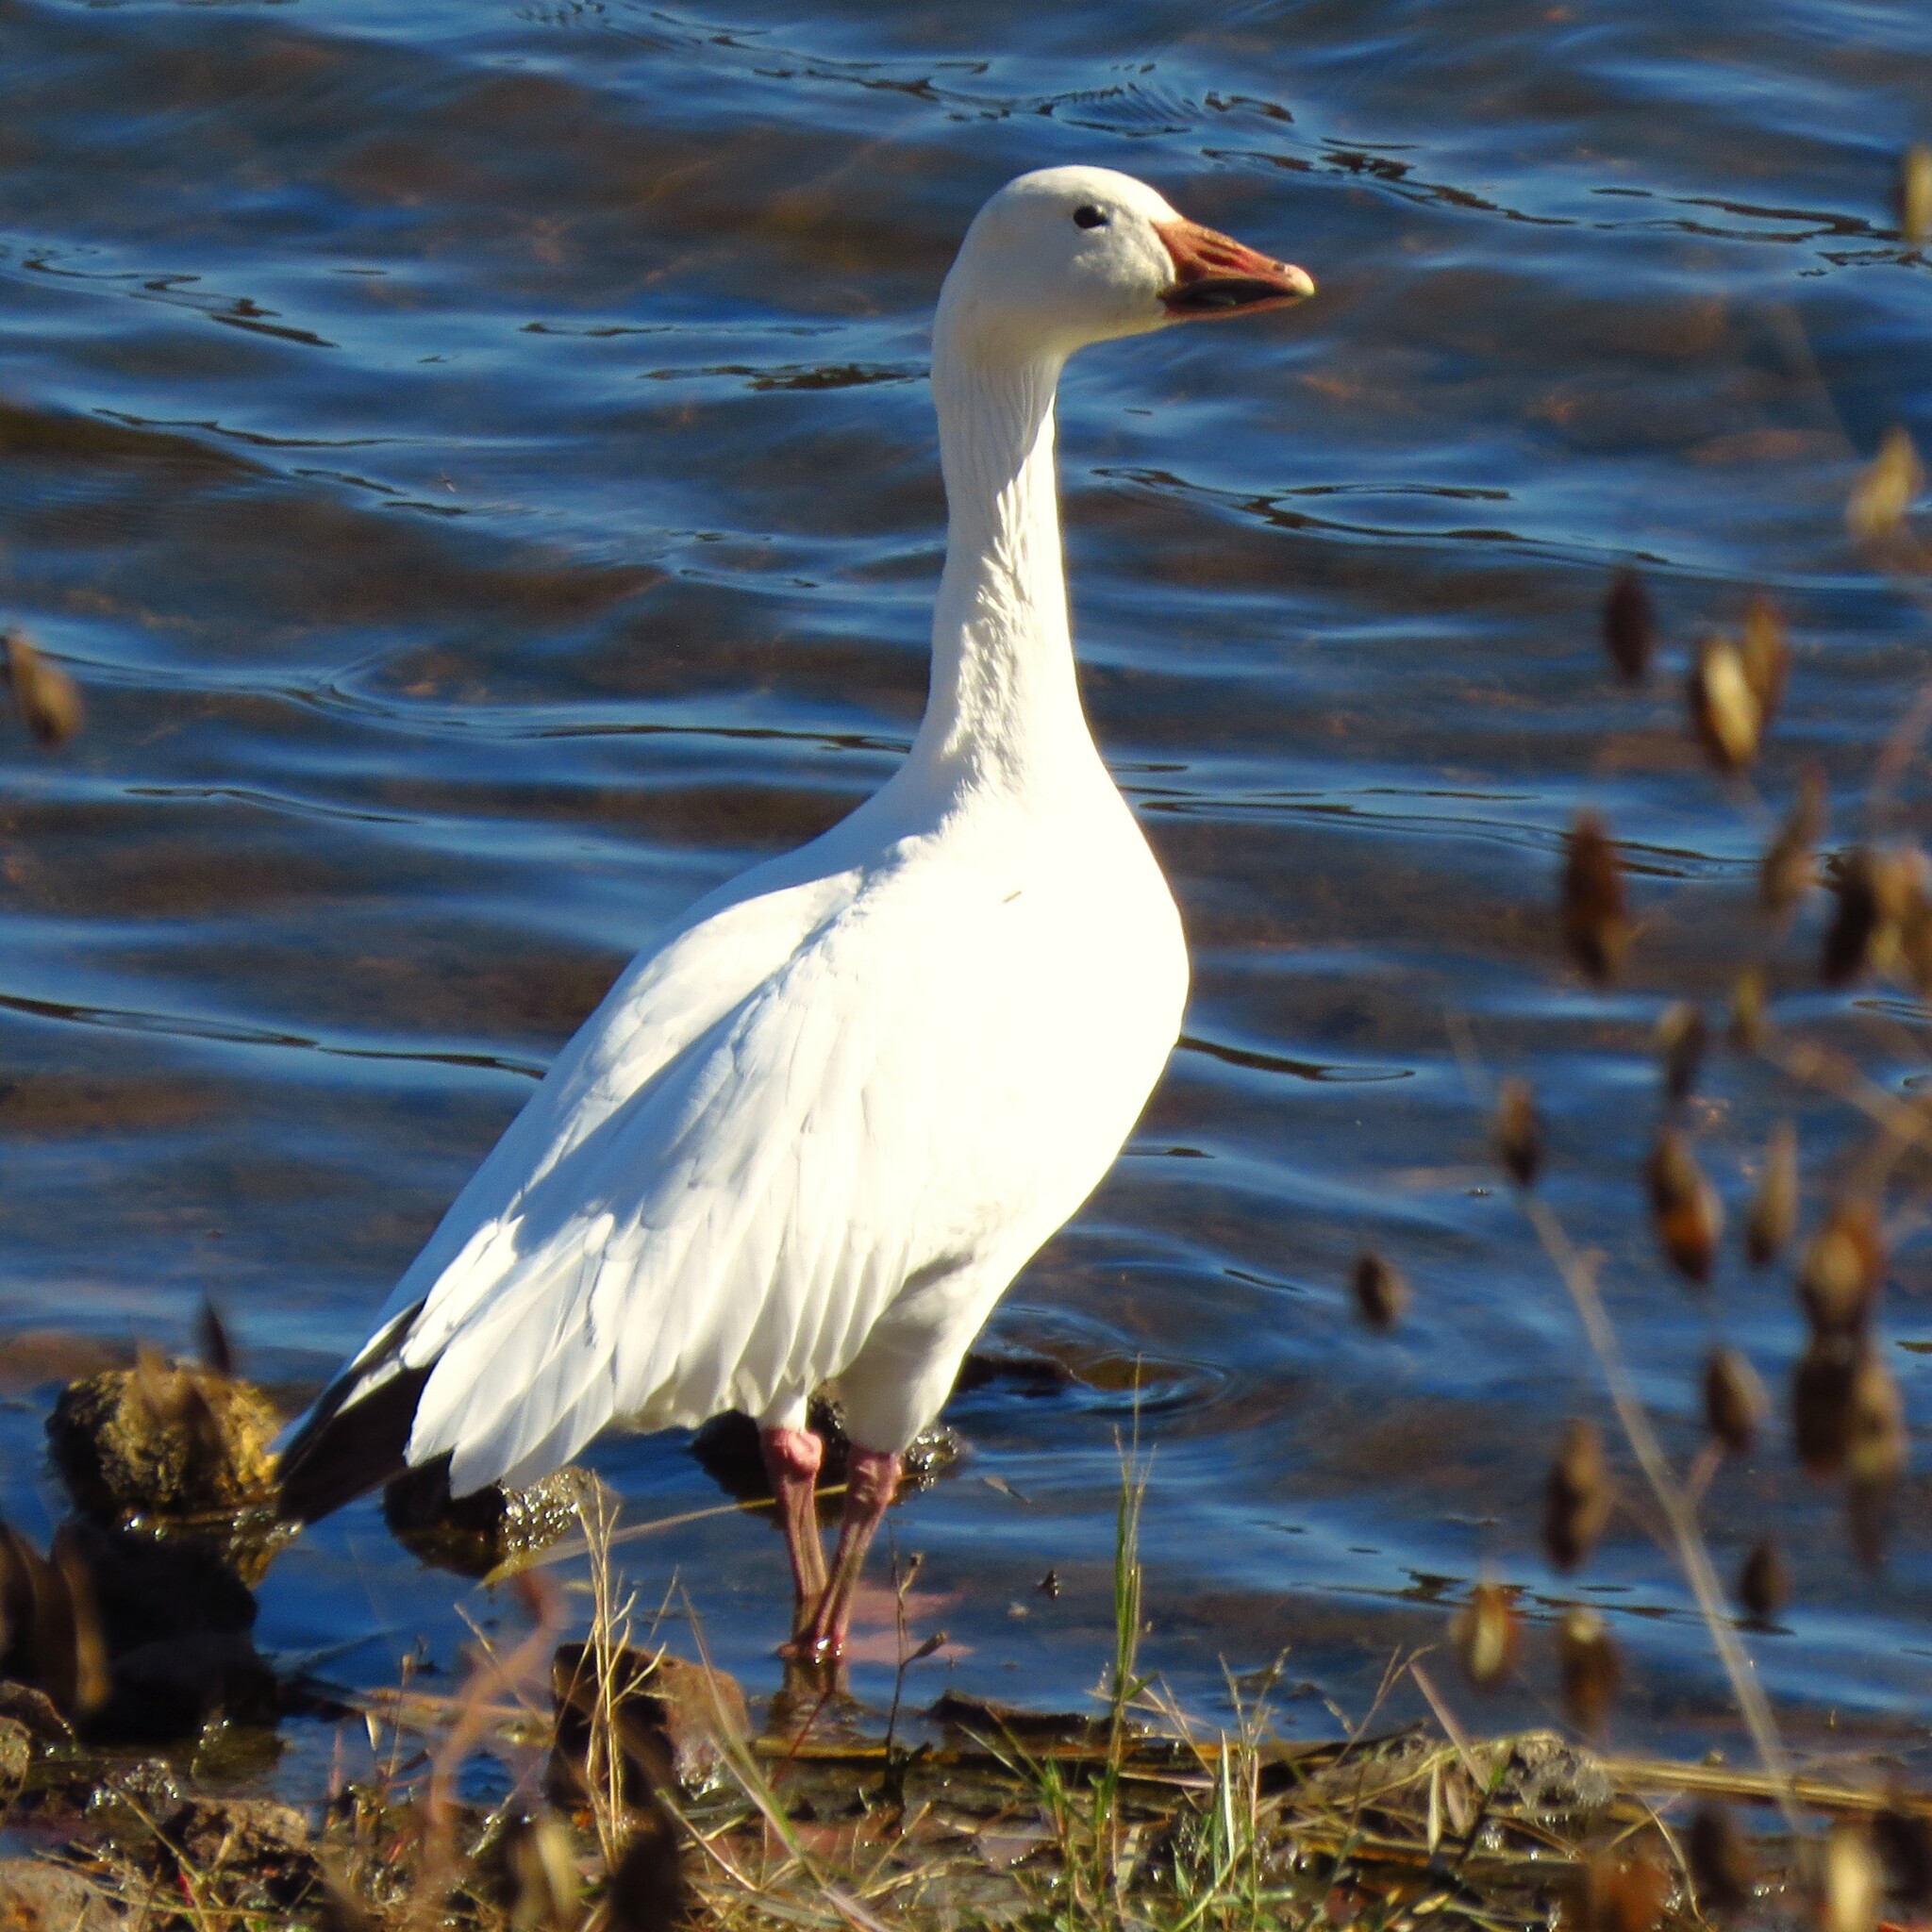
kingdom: Animalia
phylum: Chordata
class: Aves
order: Anseriformes
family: Anatidae
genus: Anser
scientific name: Anser caerulescens
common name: Snow goose
